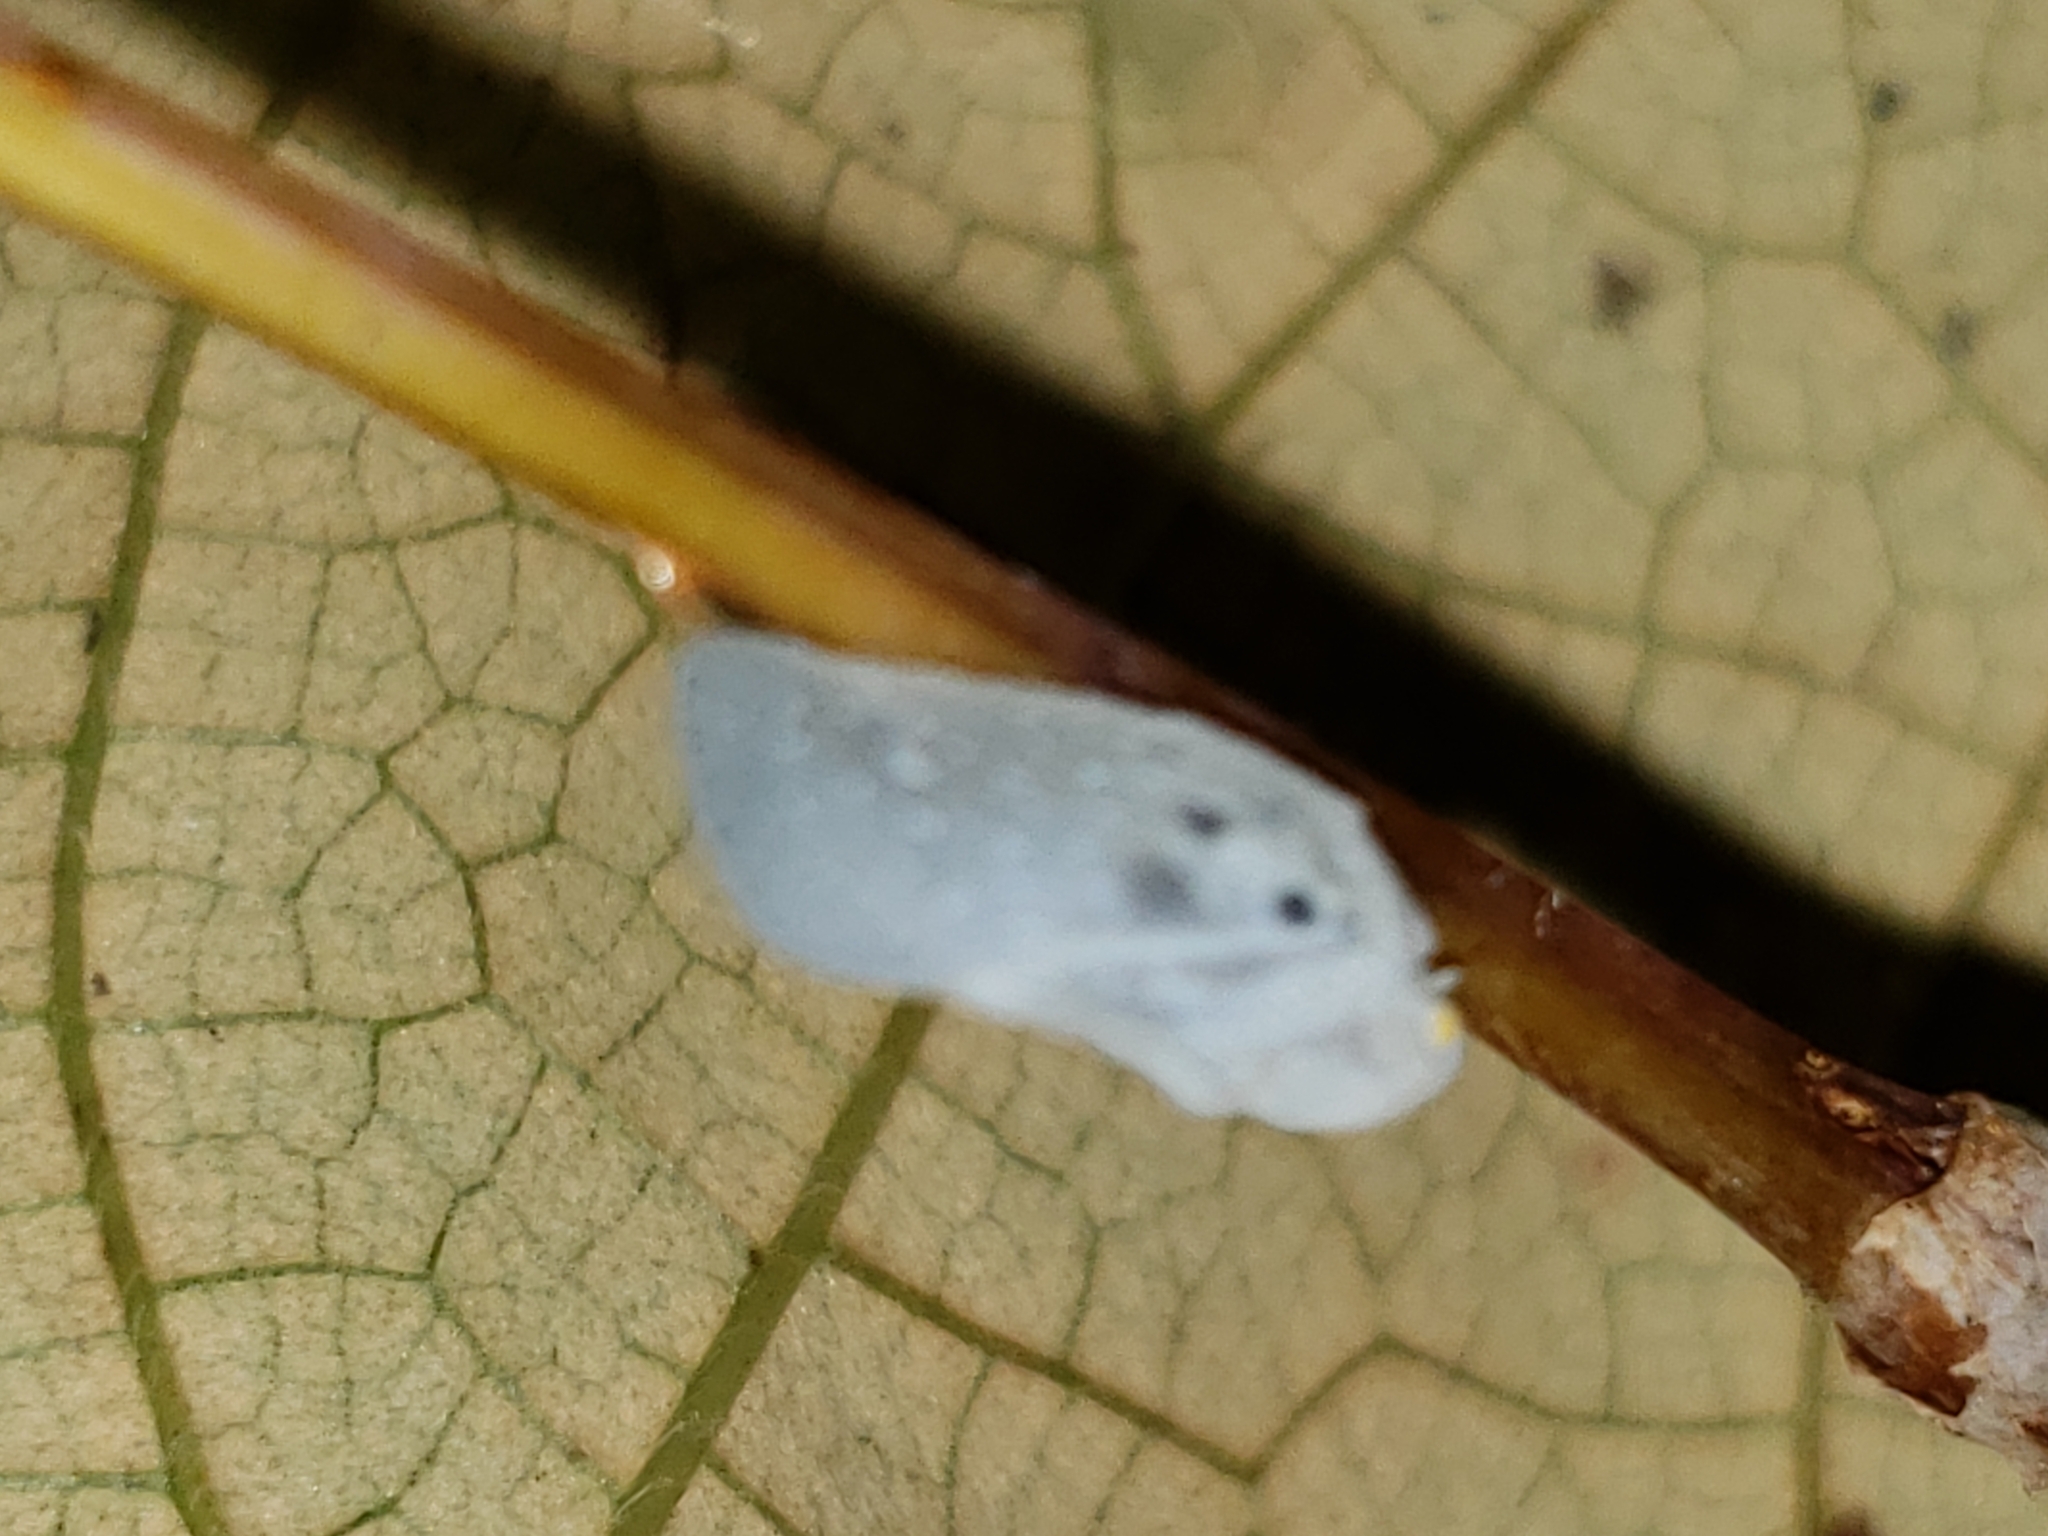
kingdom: Animalia
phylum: Arthropoda
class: Insecta
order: Hemiptera
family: Flatidae
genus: Metcalfa
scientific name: Metcalfa pruinosa
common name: Citrus flatid planthopper
